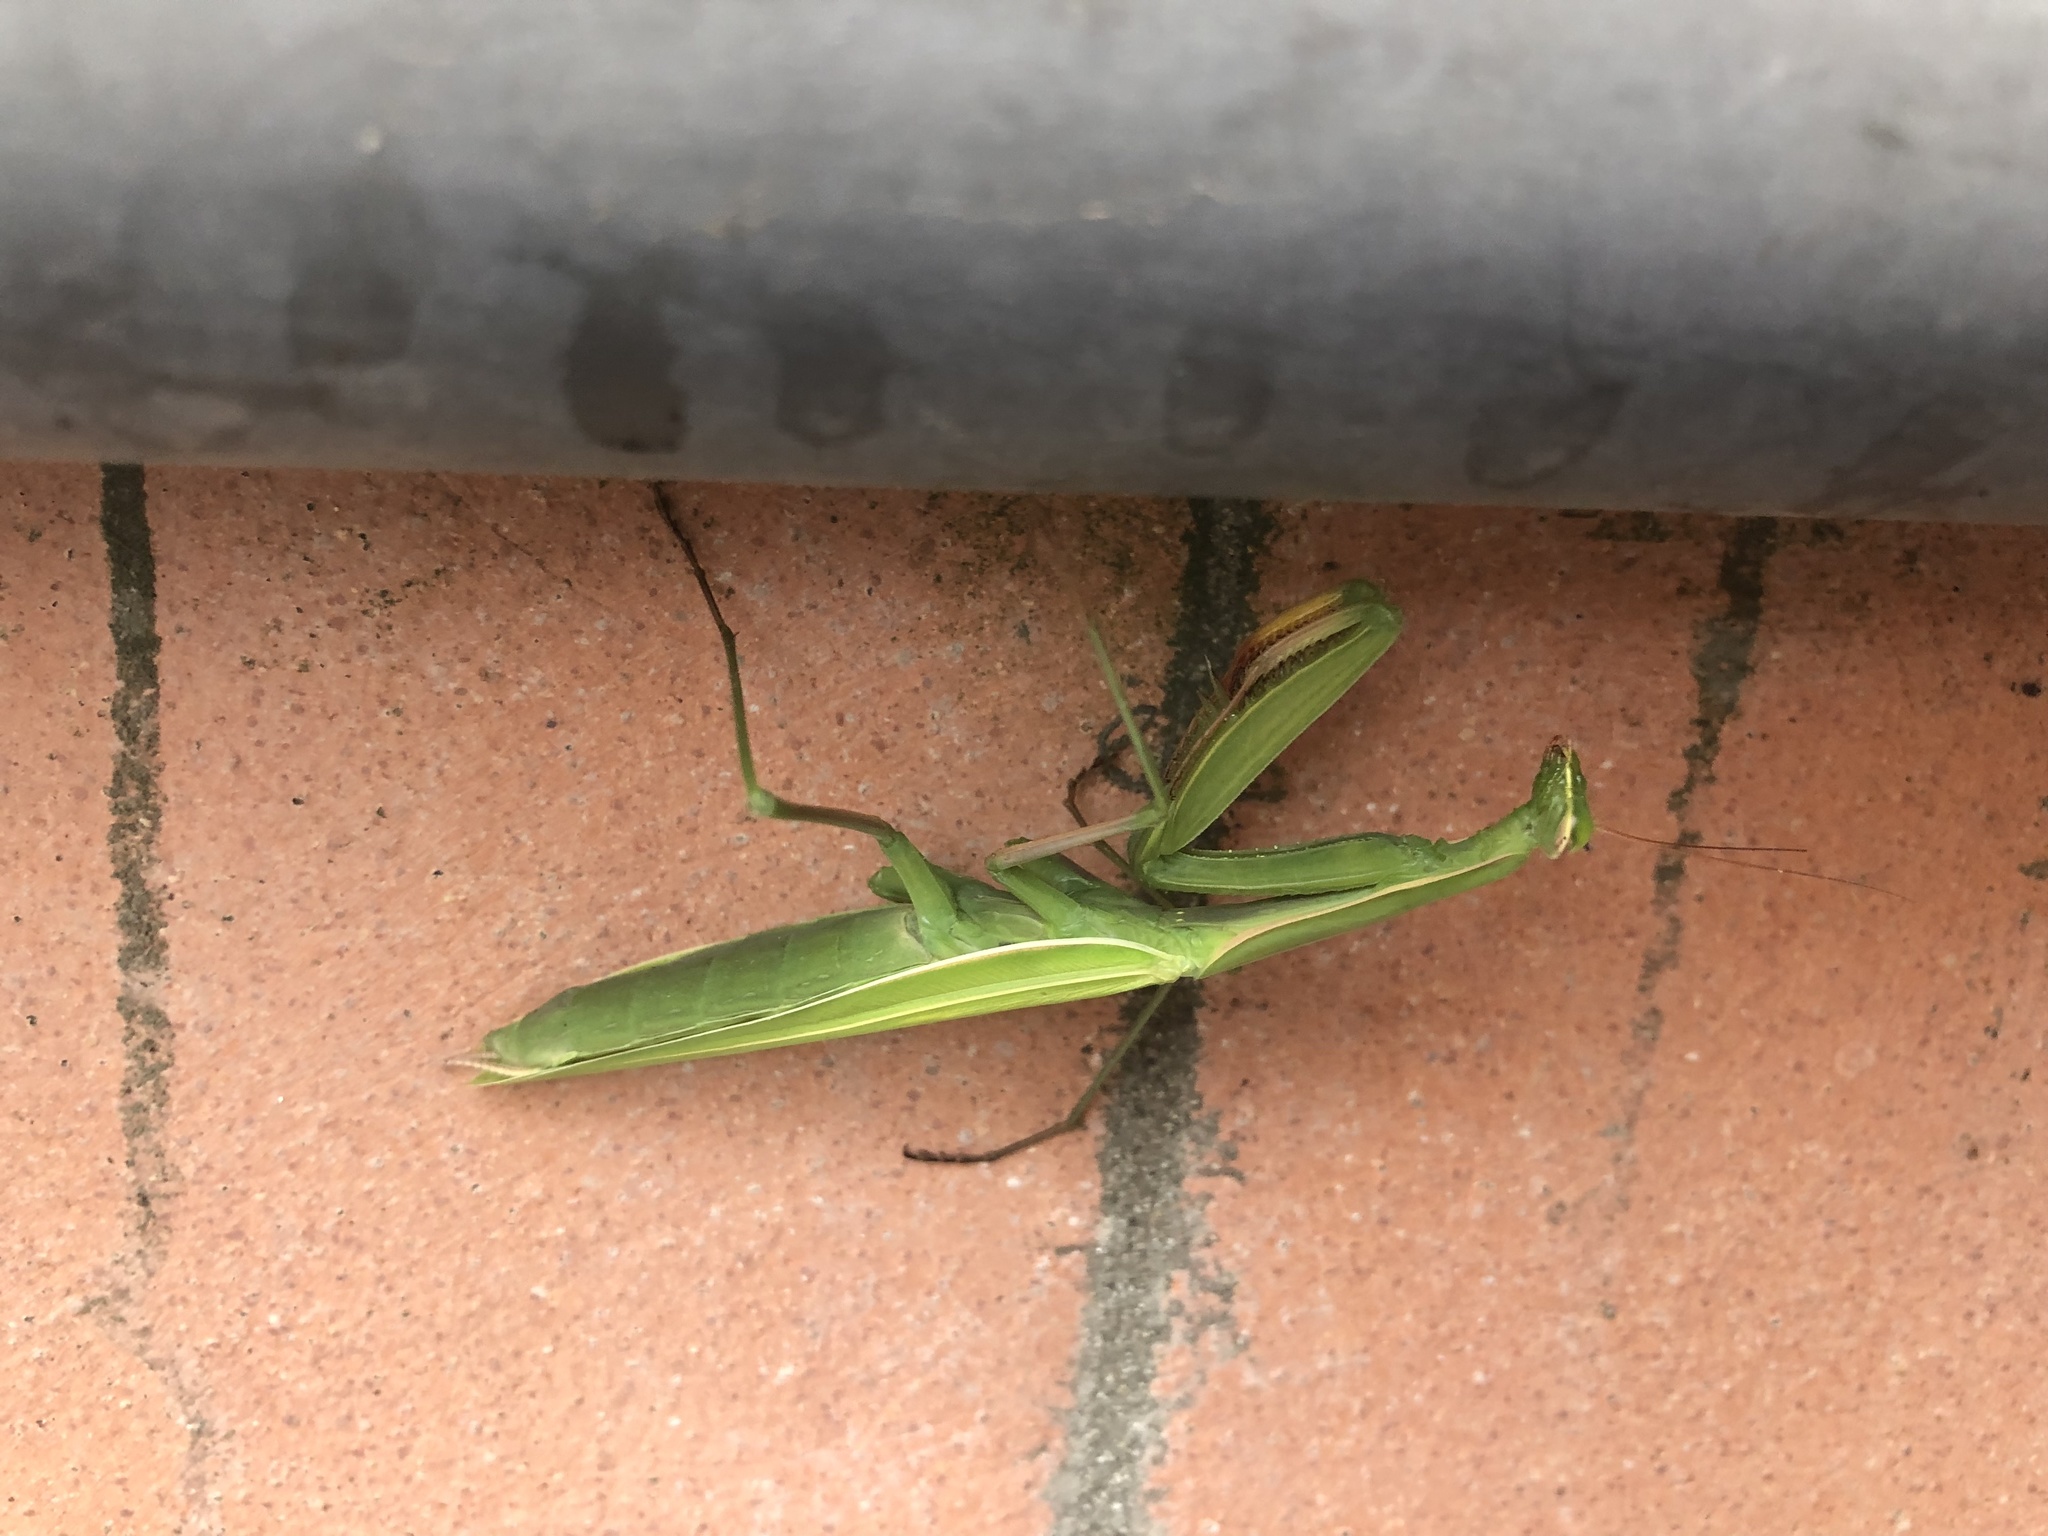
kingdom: Animalia
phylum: Arthropoda
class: Insecta
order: Mantodea
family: Mantidae
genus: Mantis
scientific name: Mantis religiosa
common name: Praying mantis
